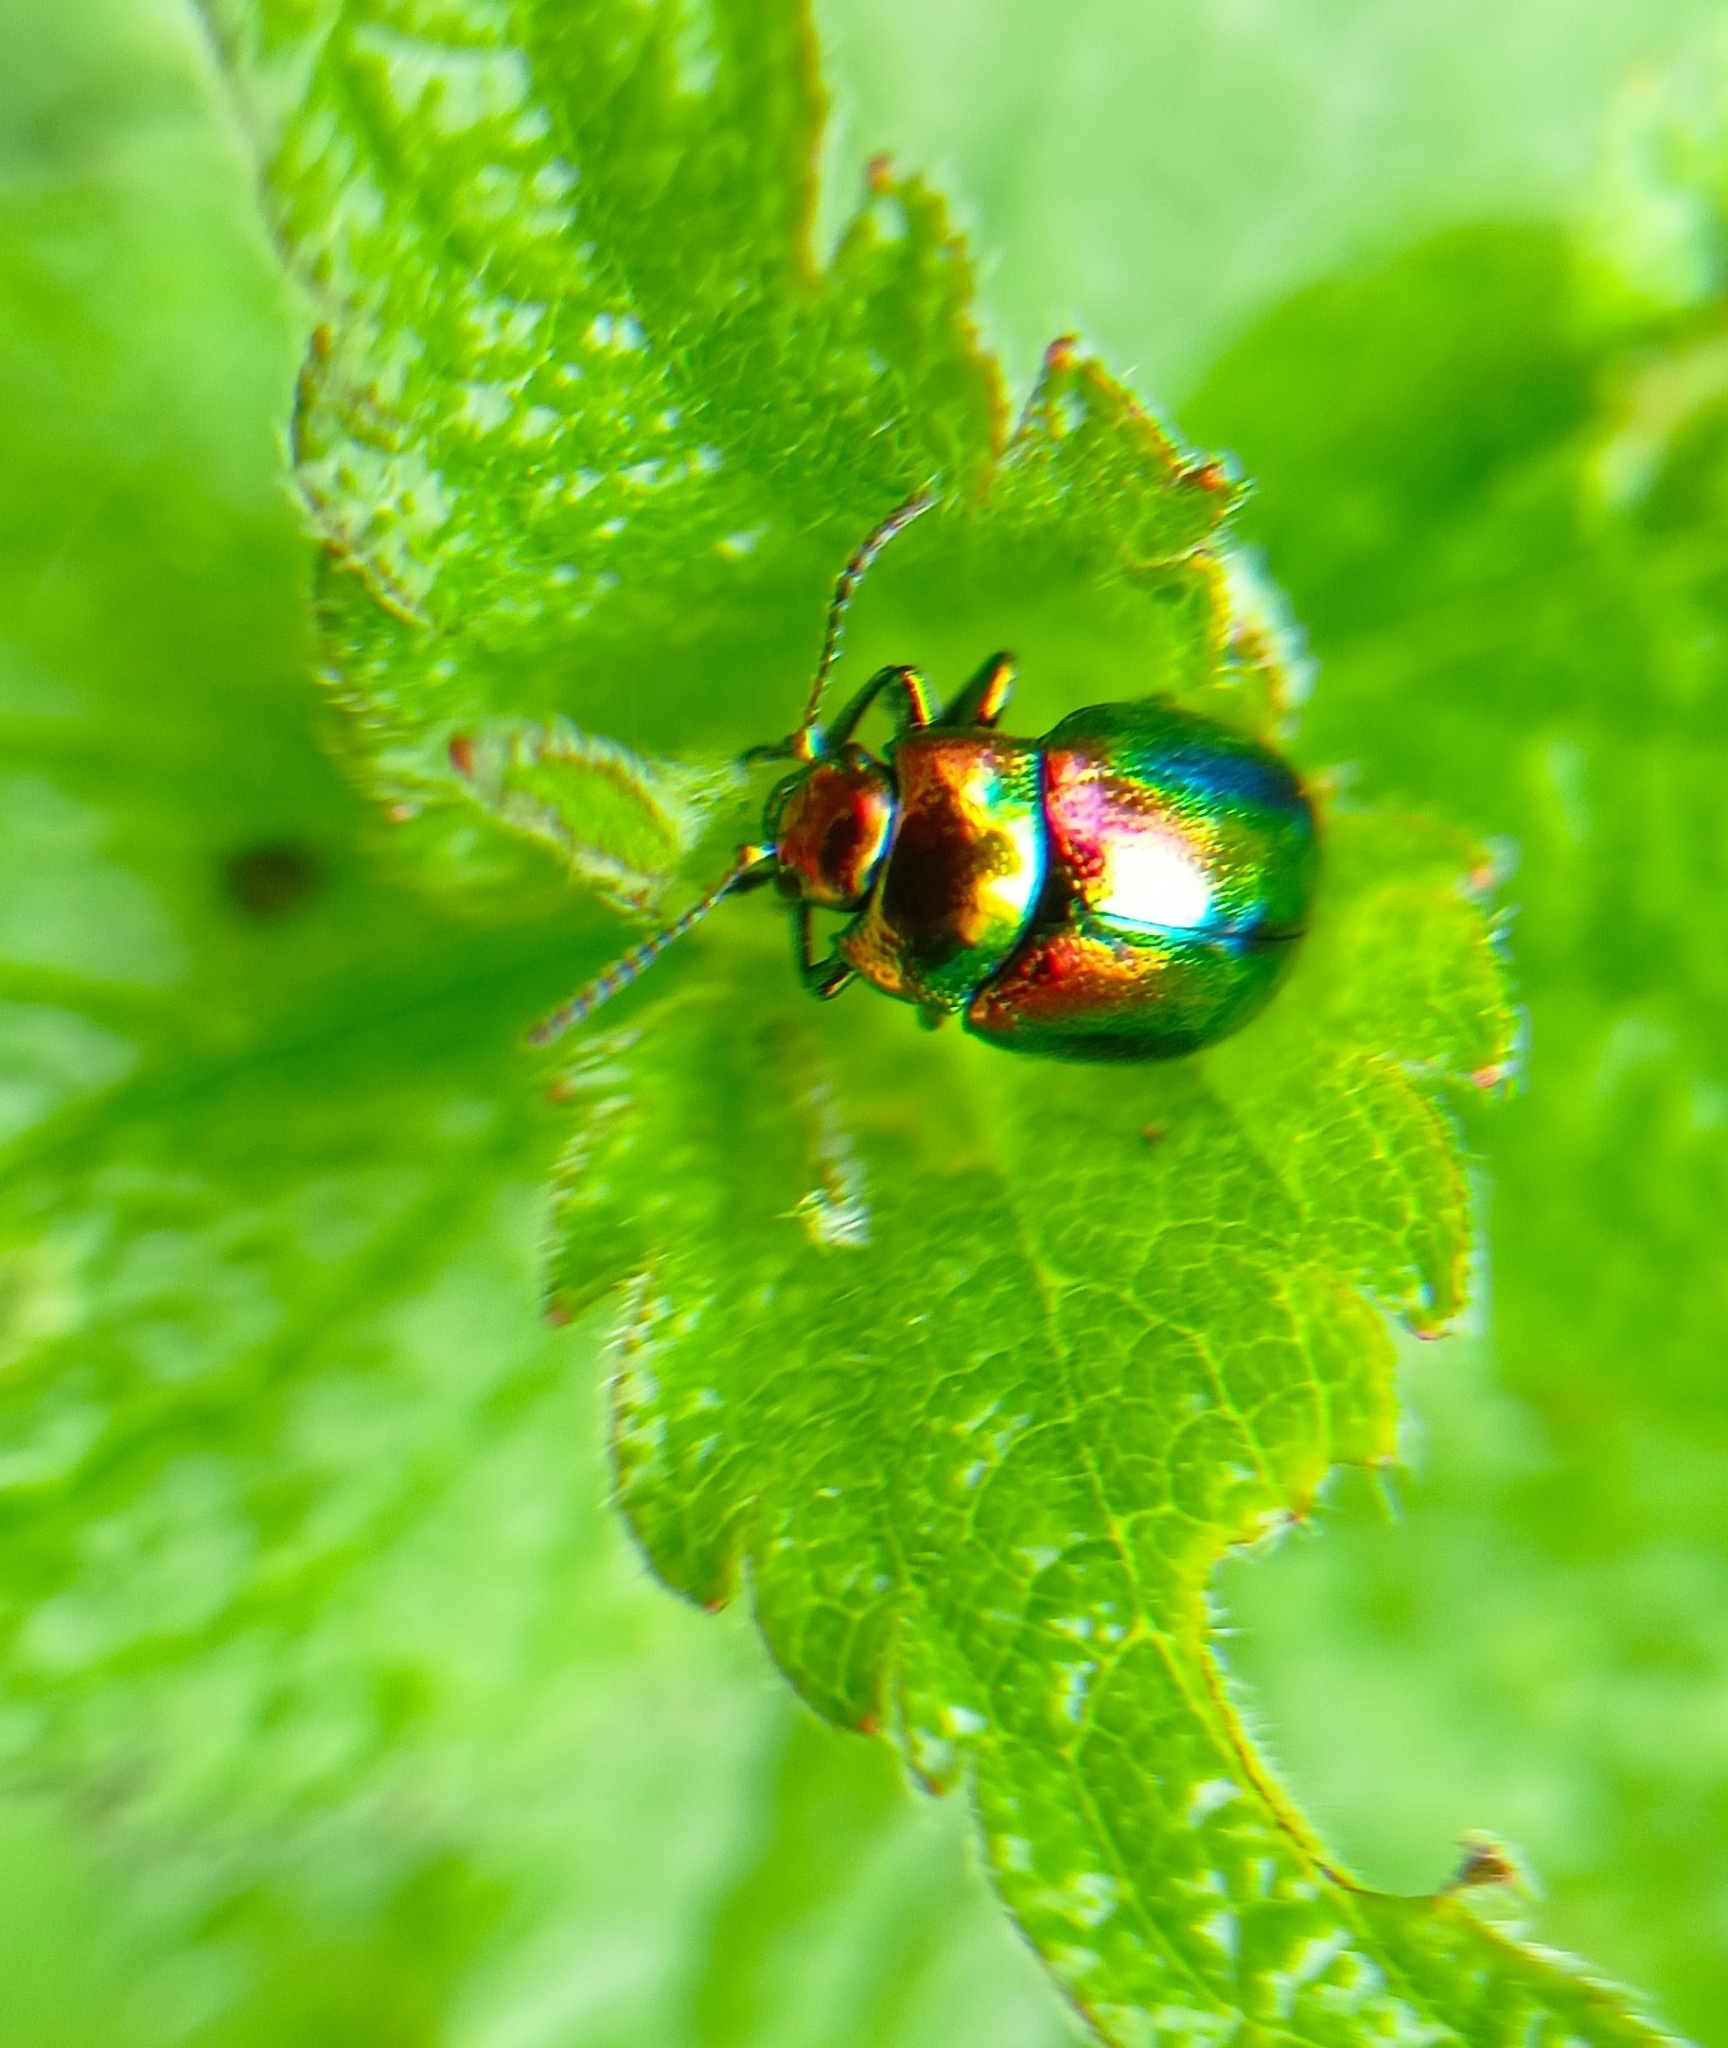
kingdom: Animalia
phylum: Arthropoda
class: Insecta
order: Coleoptera
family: Chrysomelidae
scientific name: Chrysomelidae
